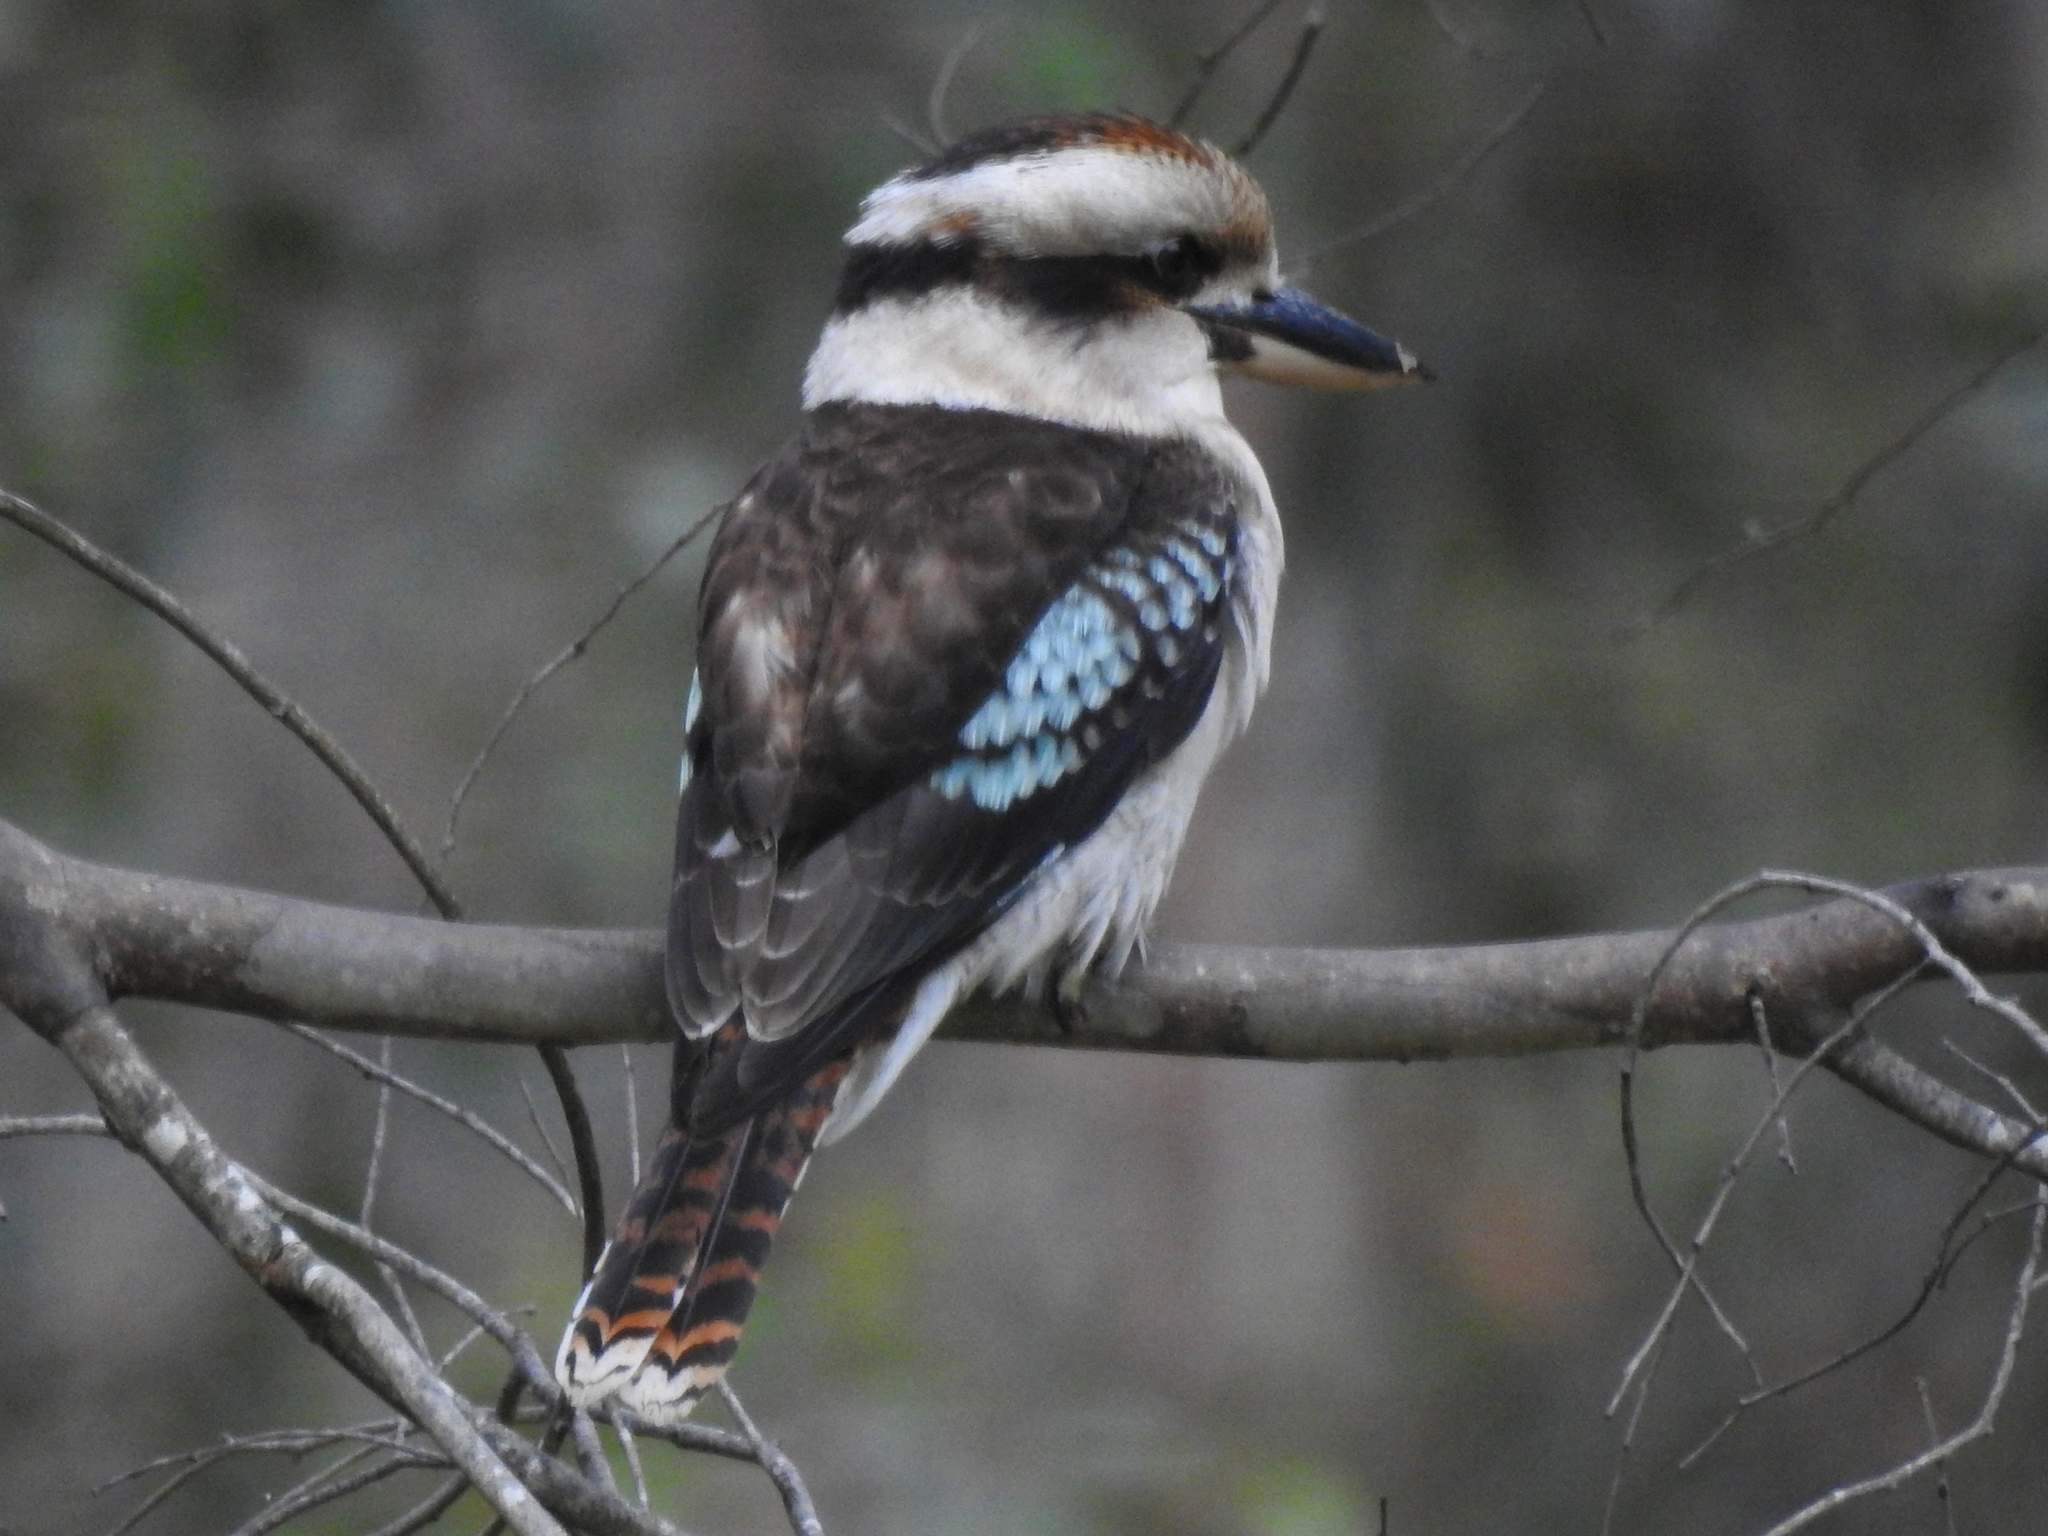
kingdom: Animalia
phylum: Chordata
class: Aves
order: Coraciiformes
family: Alcedinidae
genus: Dacelo
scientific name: Dacelo novaeguineae
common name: Laughing kookaburra
